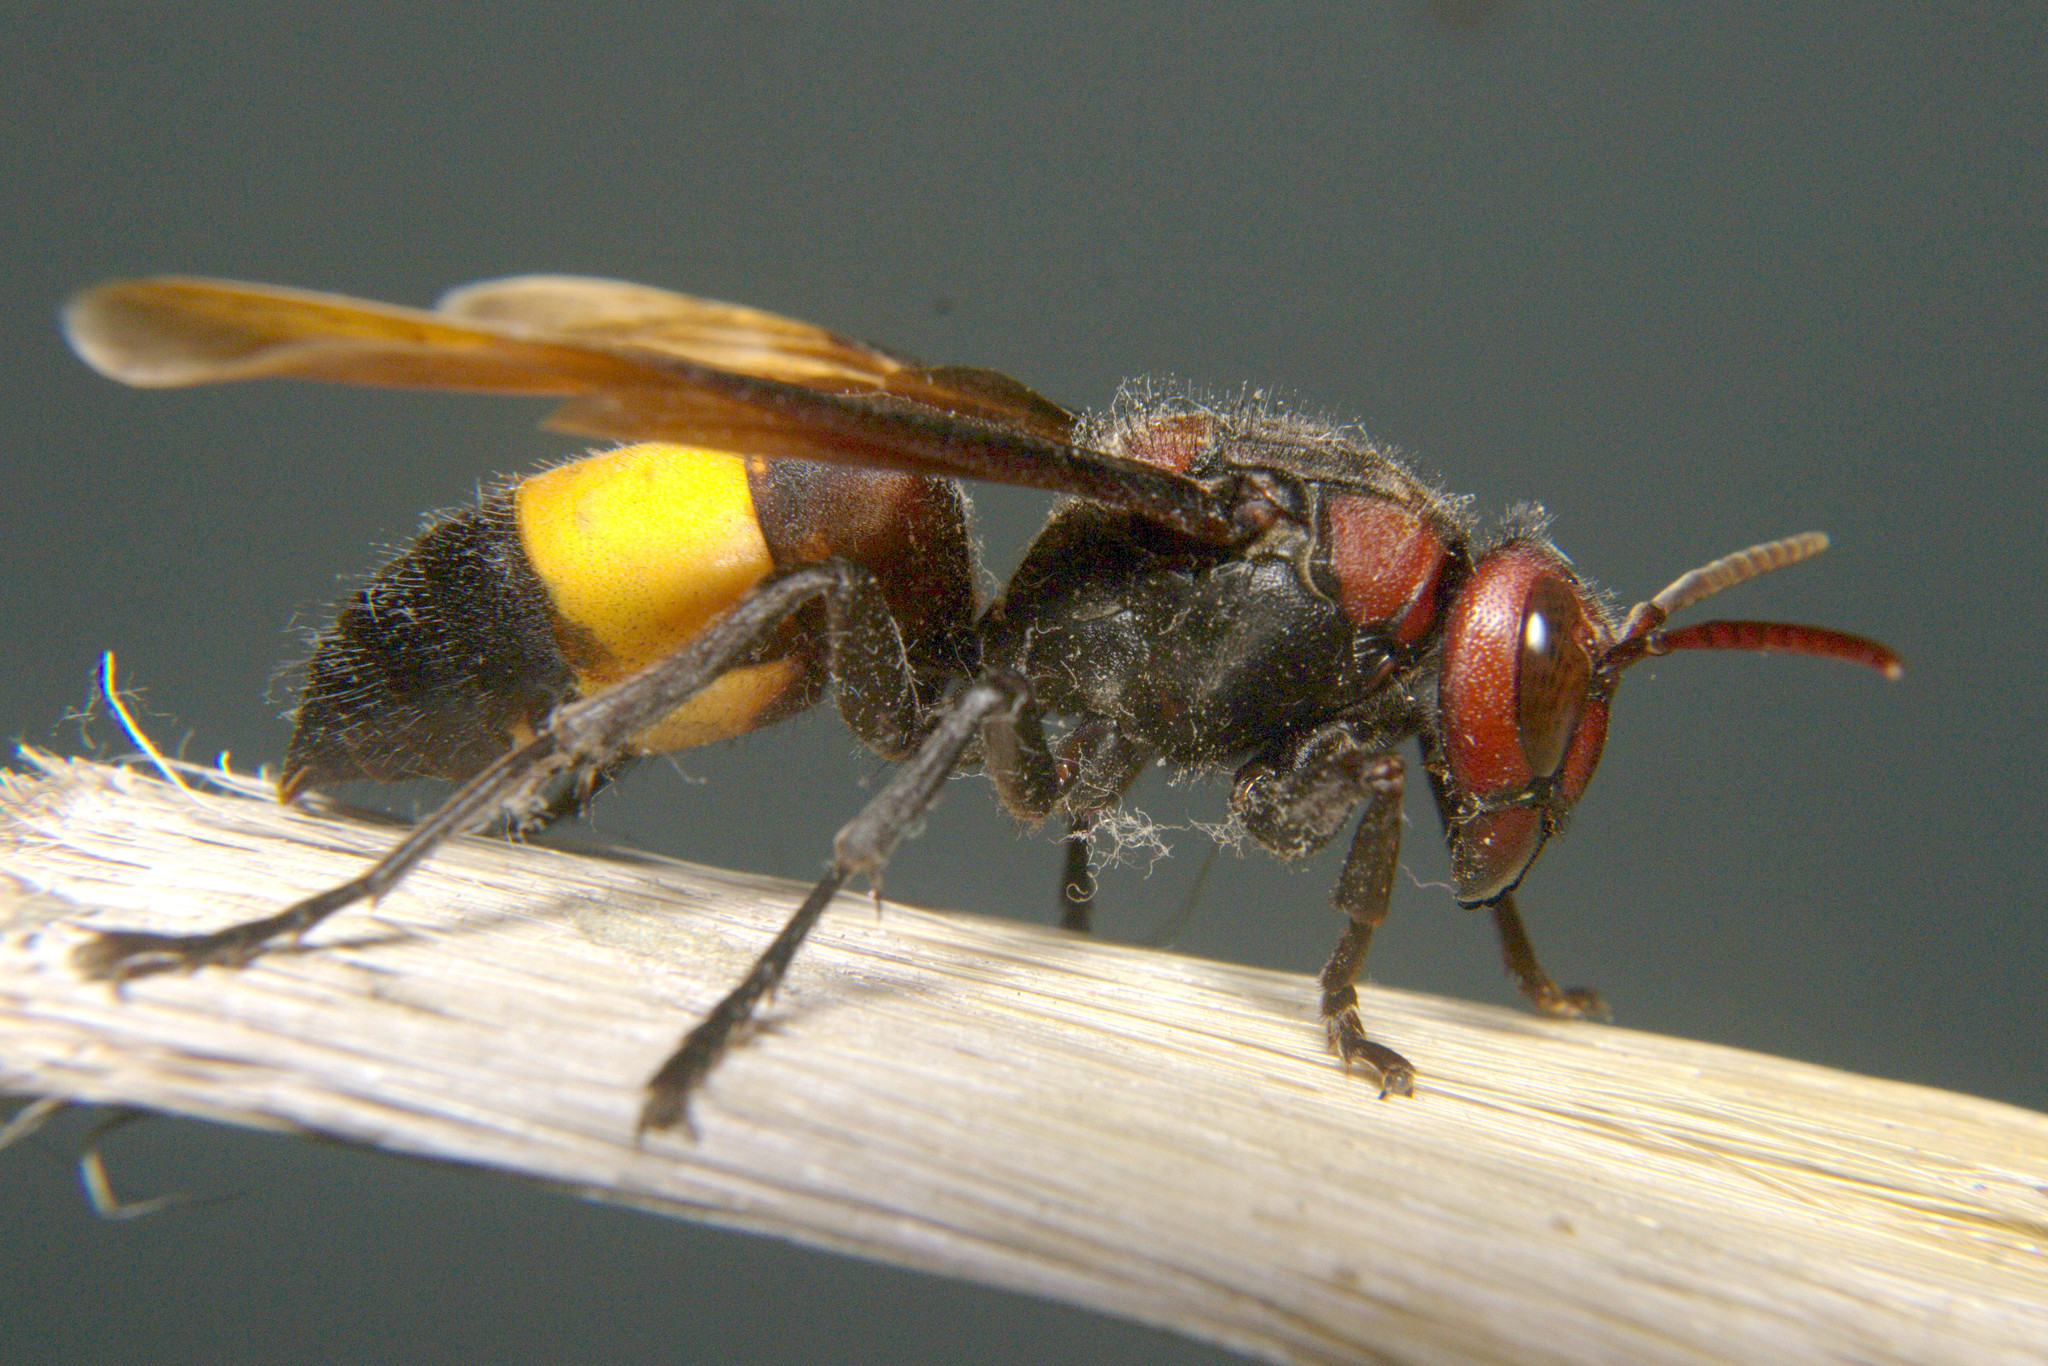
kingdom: Animalia
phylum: Arthropoda
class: Insecta
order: Hymenoptera
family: Vespidae
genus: Vespa
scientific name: Vespa tropica
